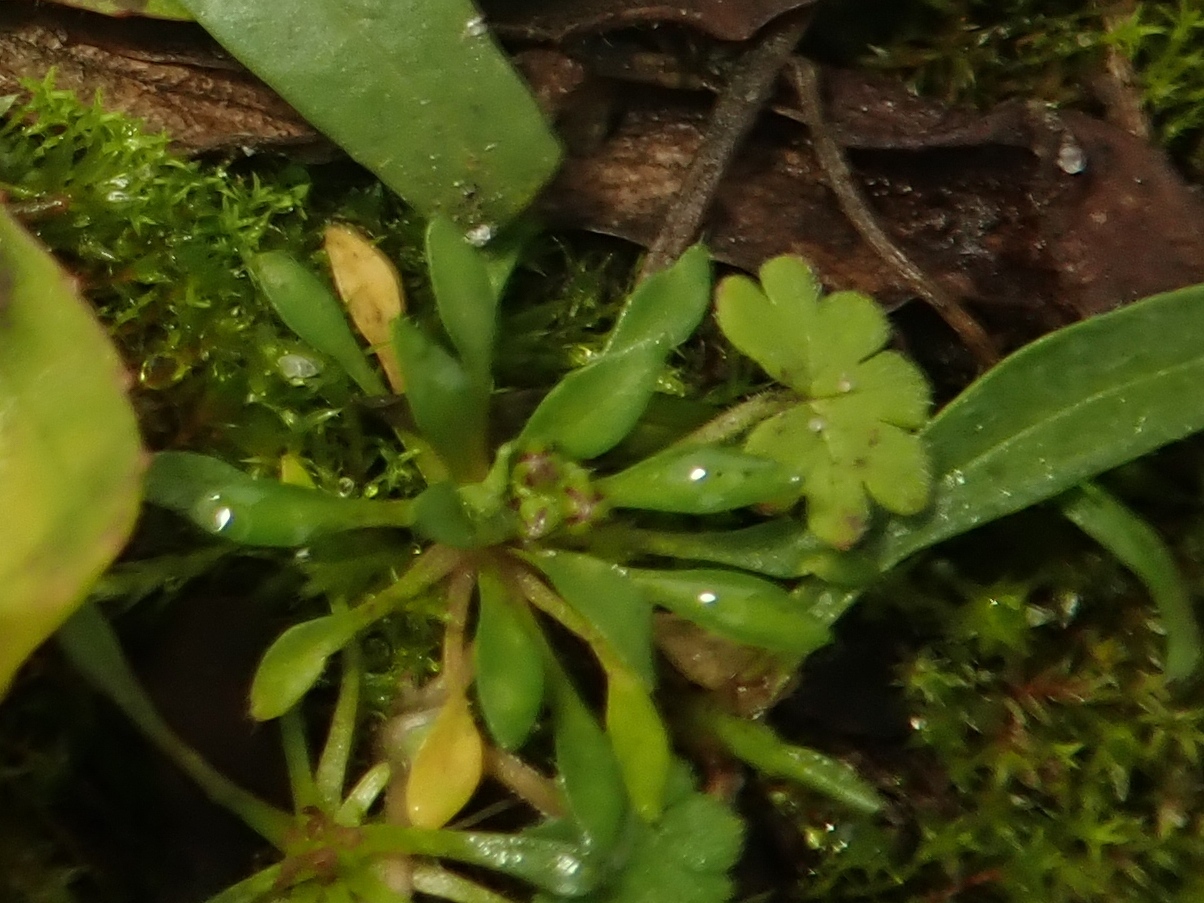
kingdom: Plantae
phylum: Tracheophyta
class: Magnoliopsida
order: Brassicales
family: Brassicaceae
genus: Draba
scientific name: Draba verna
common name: Spring draba
